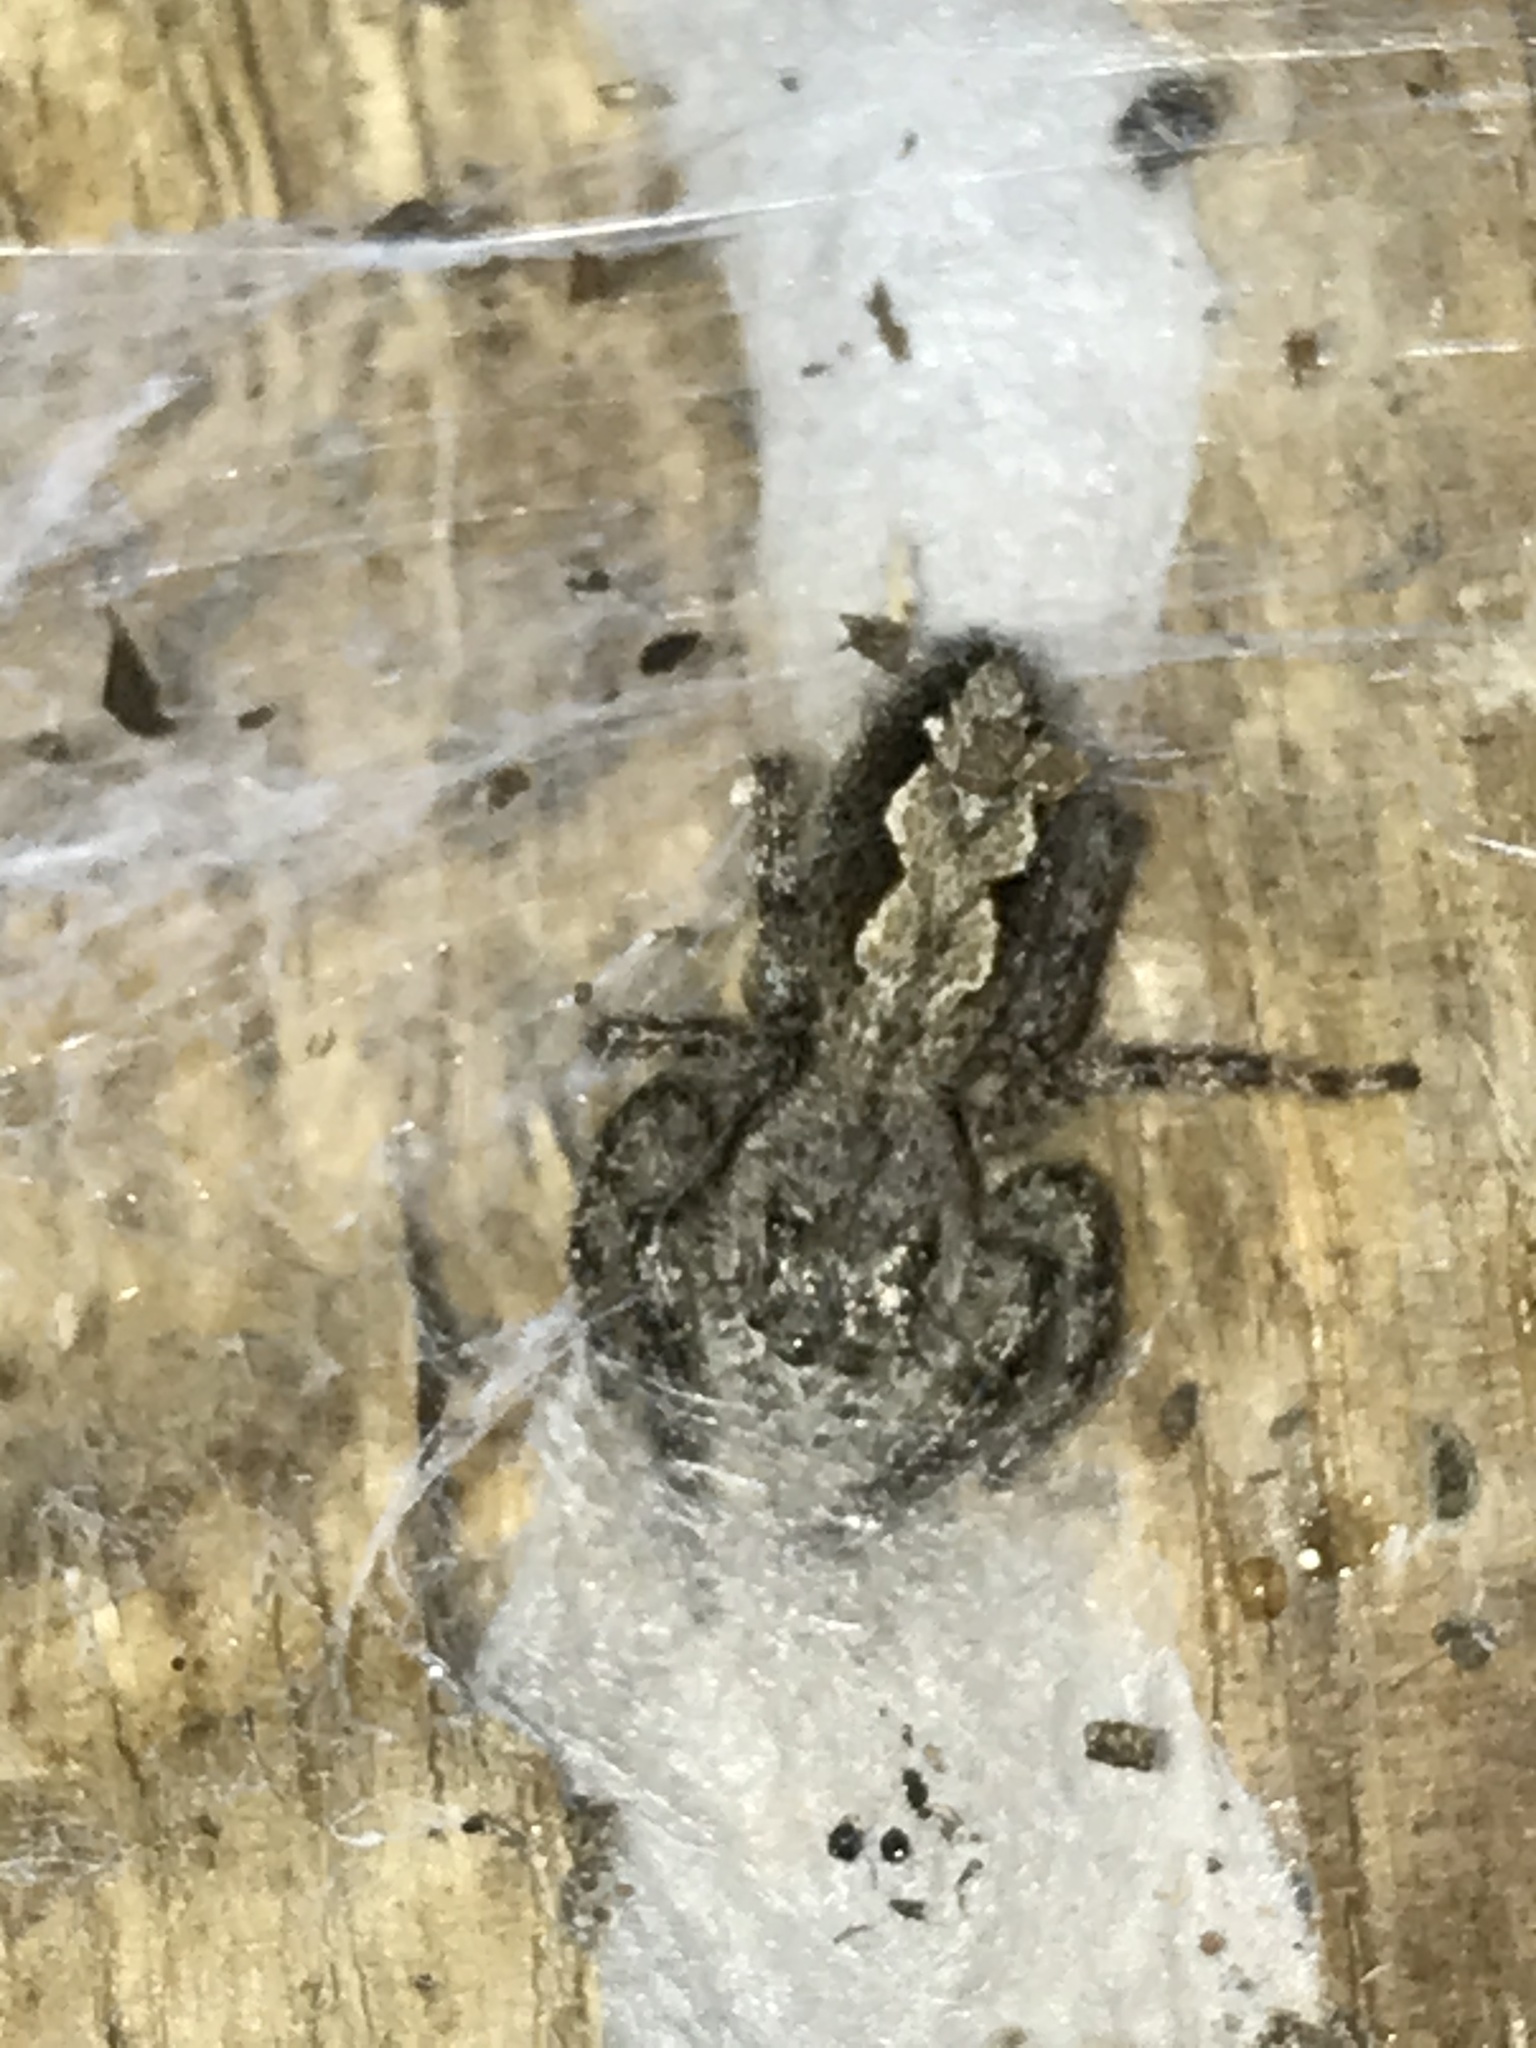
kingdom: Animalia
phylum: Arthropoda
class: Arachnida
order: Araneae
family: Salticidae
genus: Platycryptus
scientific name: Platycryptus undatus
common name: Tan jumping spider
